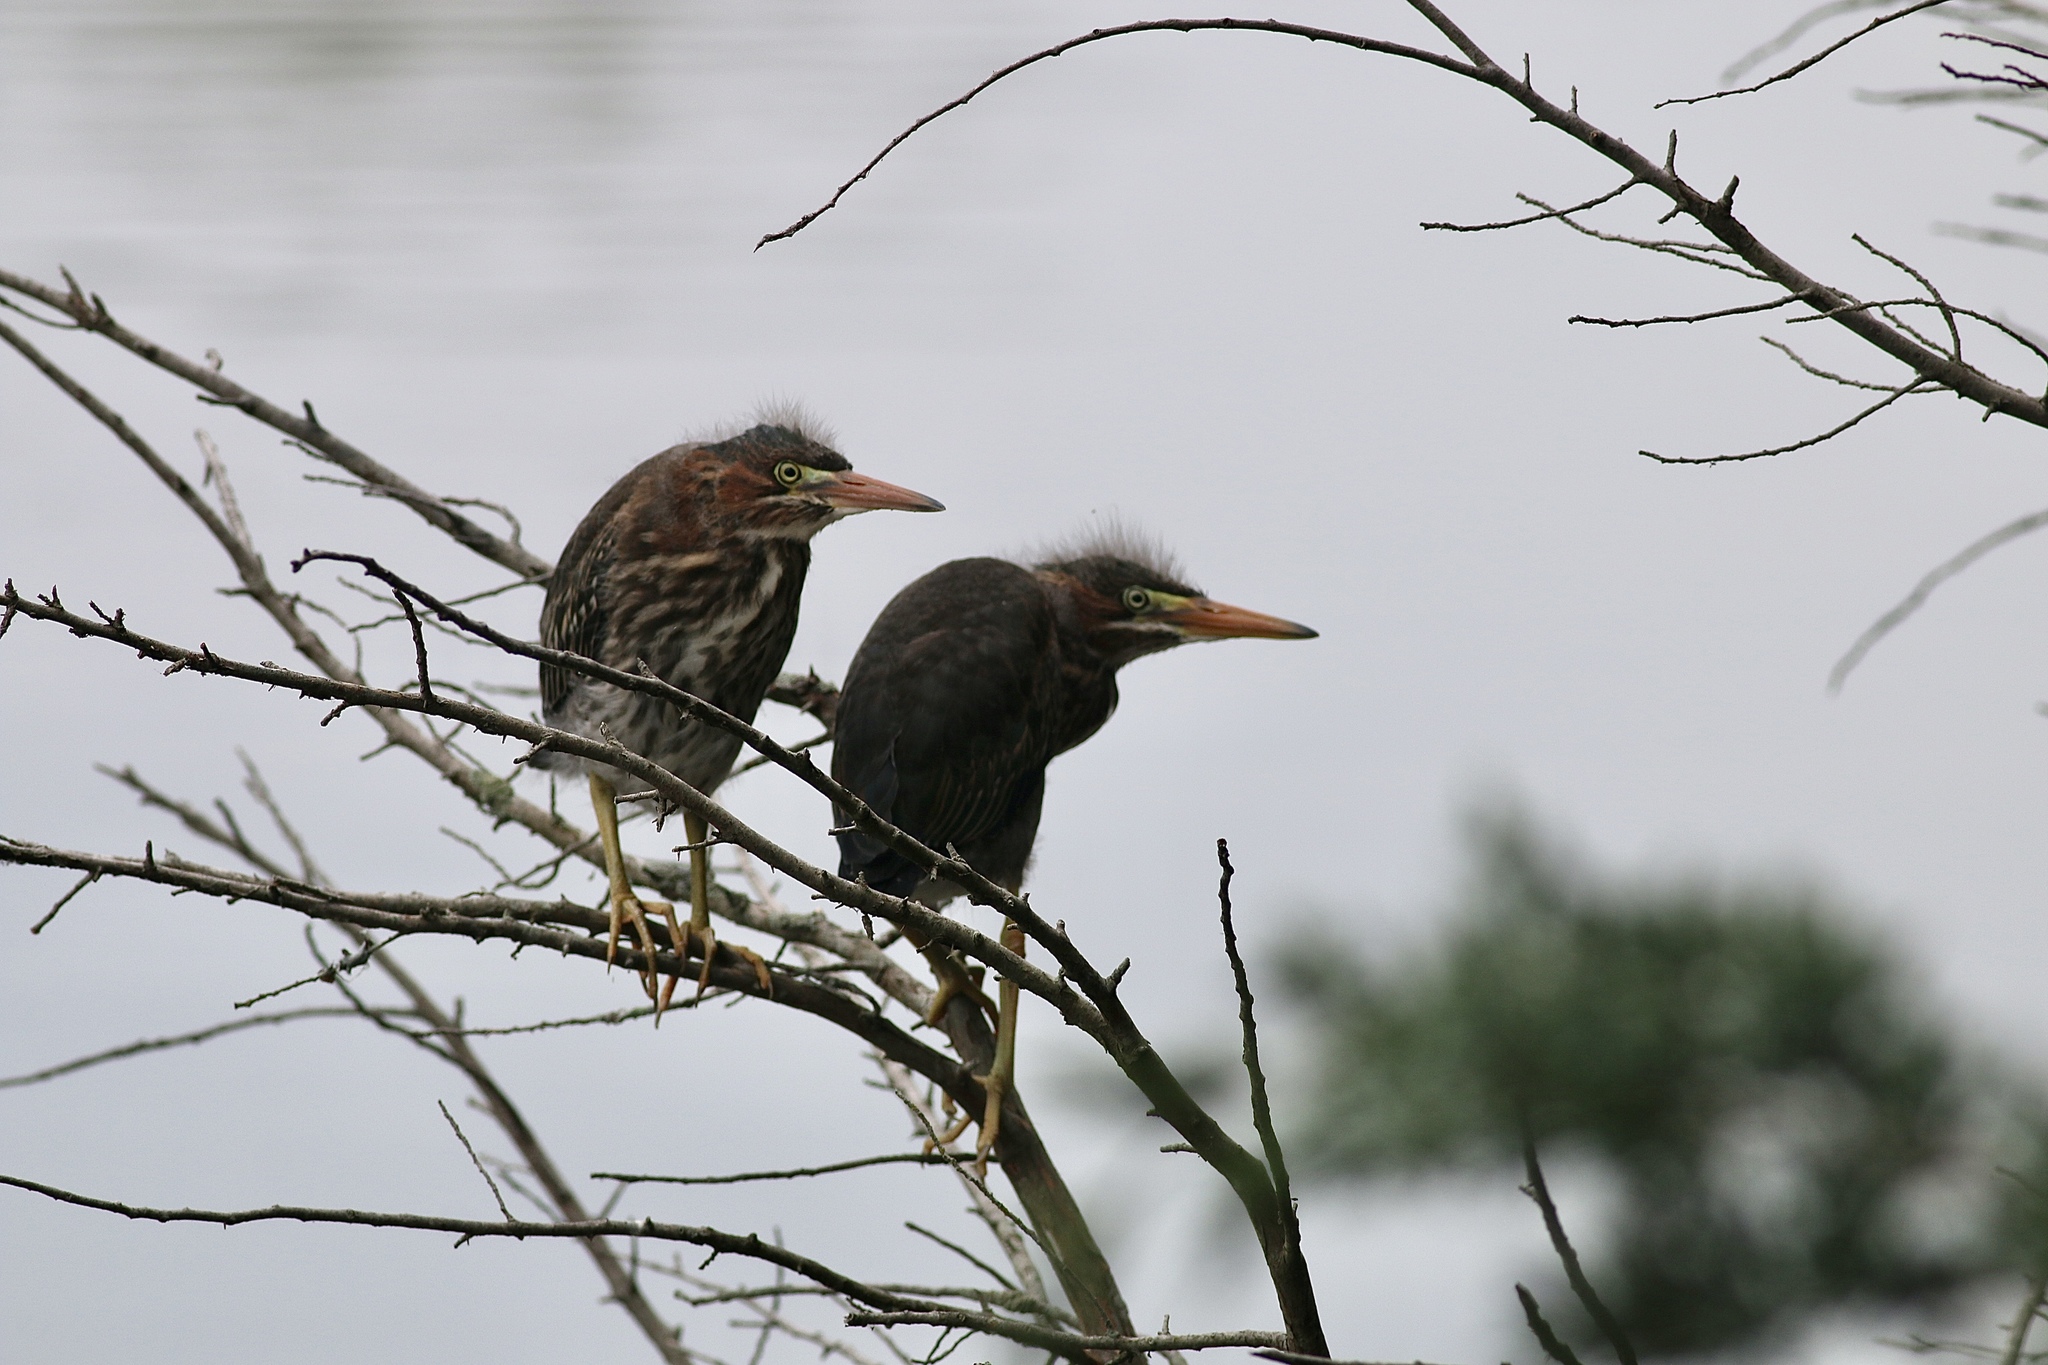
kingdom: Animalia
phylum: Chordata
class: Aves
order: Pelecaniformes
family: Ardeidae
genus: Butorides
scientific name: Butorides virescens
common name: Green heron
